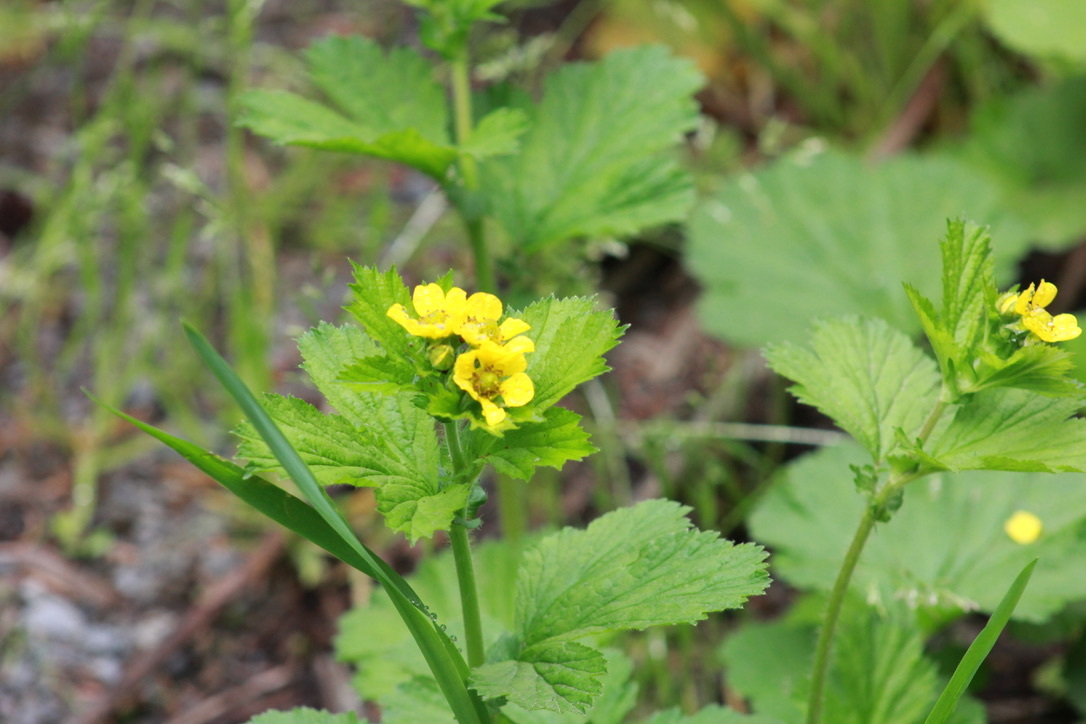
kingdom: Plantae
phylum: Tracheophyta
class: Magnoliopsida
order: Rosales
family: Rosaceae
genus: Geum
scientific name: Geum macrophyllum
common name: Large-leaved avens
